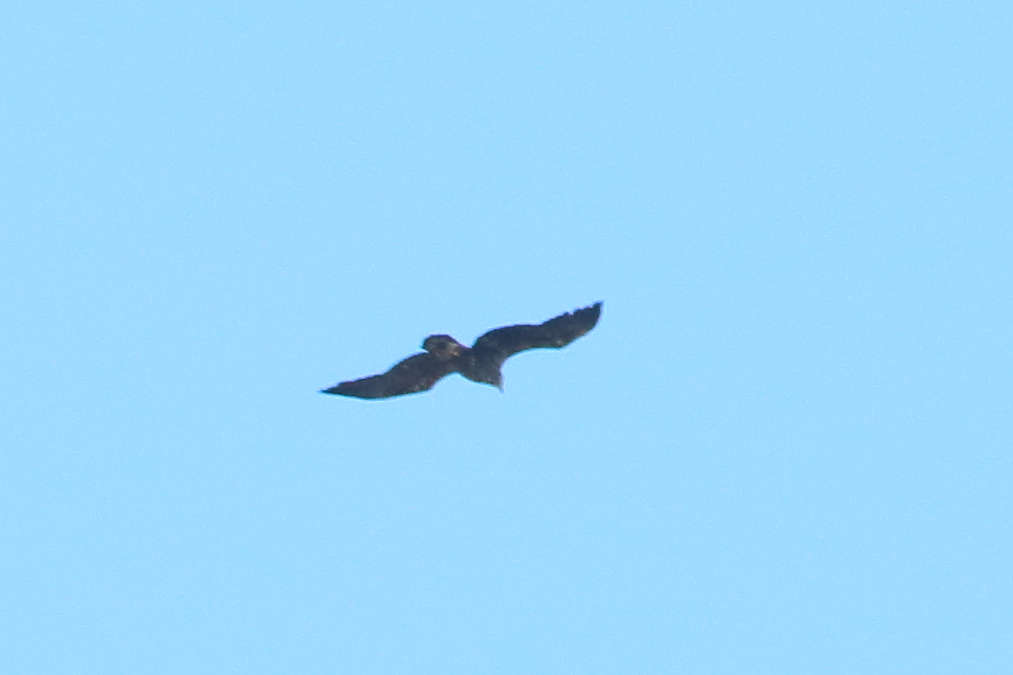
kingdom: Animalia
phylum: Chordata
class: Aves
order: Accipitriformes
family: Accipitridae
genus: Aquila
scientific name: Aquila chrysaetos
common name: Golden eagle
